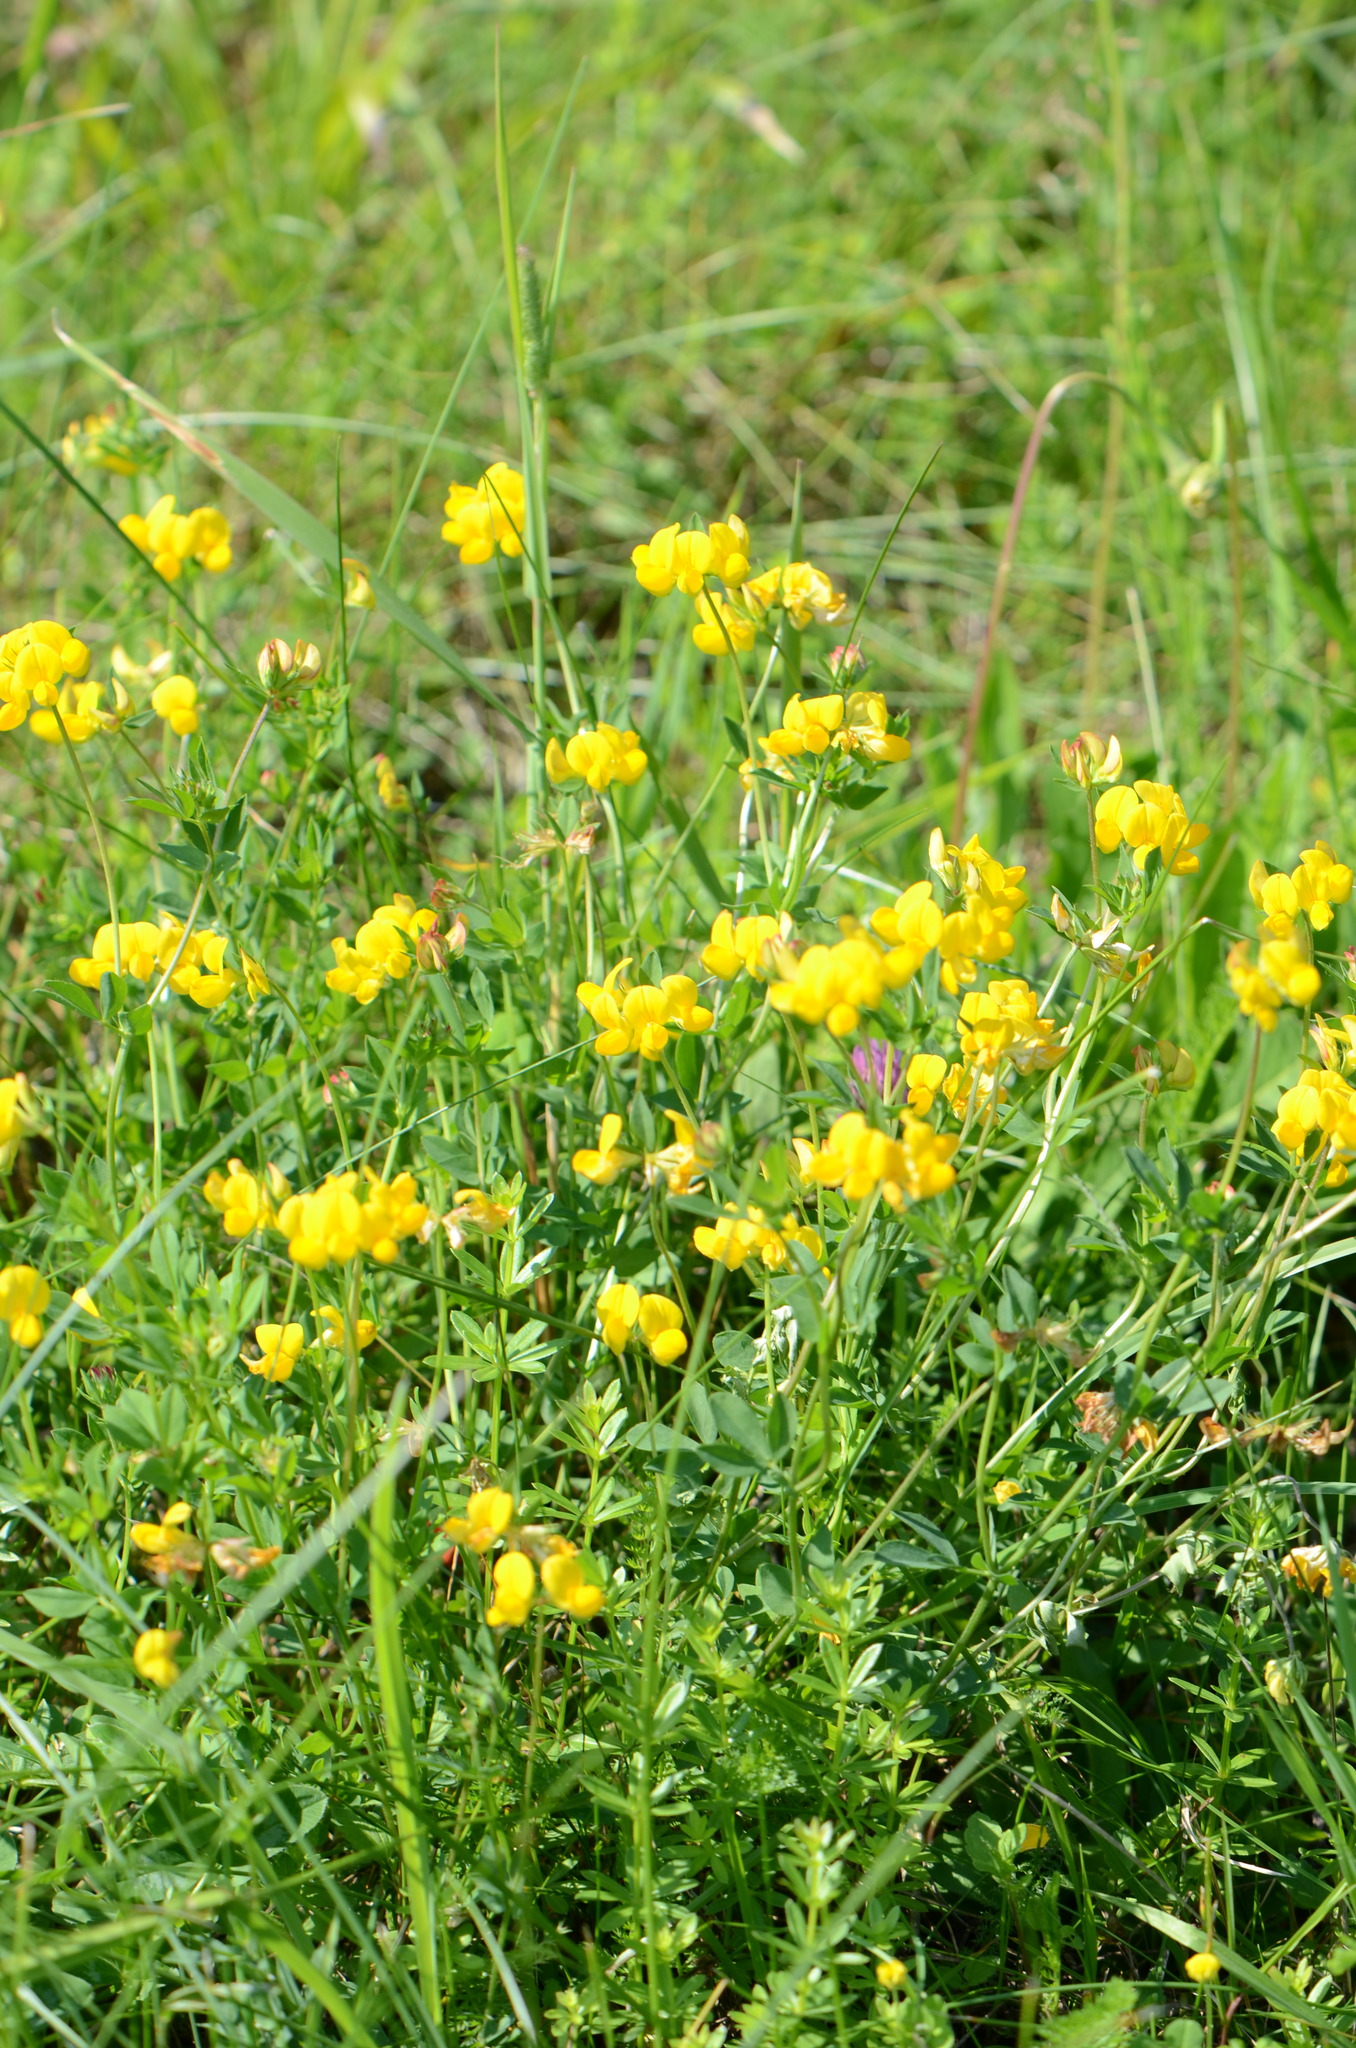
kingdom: Plantae
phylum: Tracheophyta
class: Magnoliopsida
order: Fabales
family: Fabaceae
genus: Lotus
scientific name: Lotus corniculatus
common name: Common bird's-foot-trefoil
